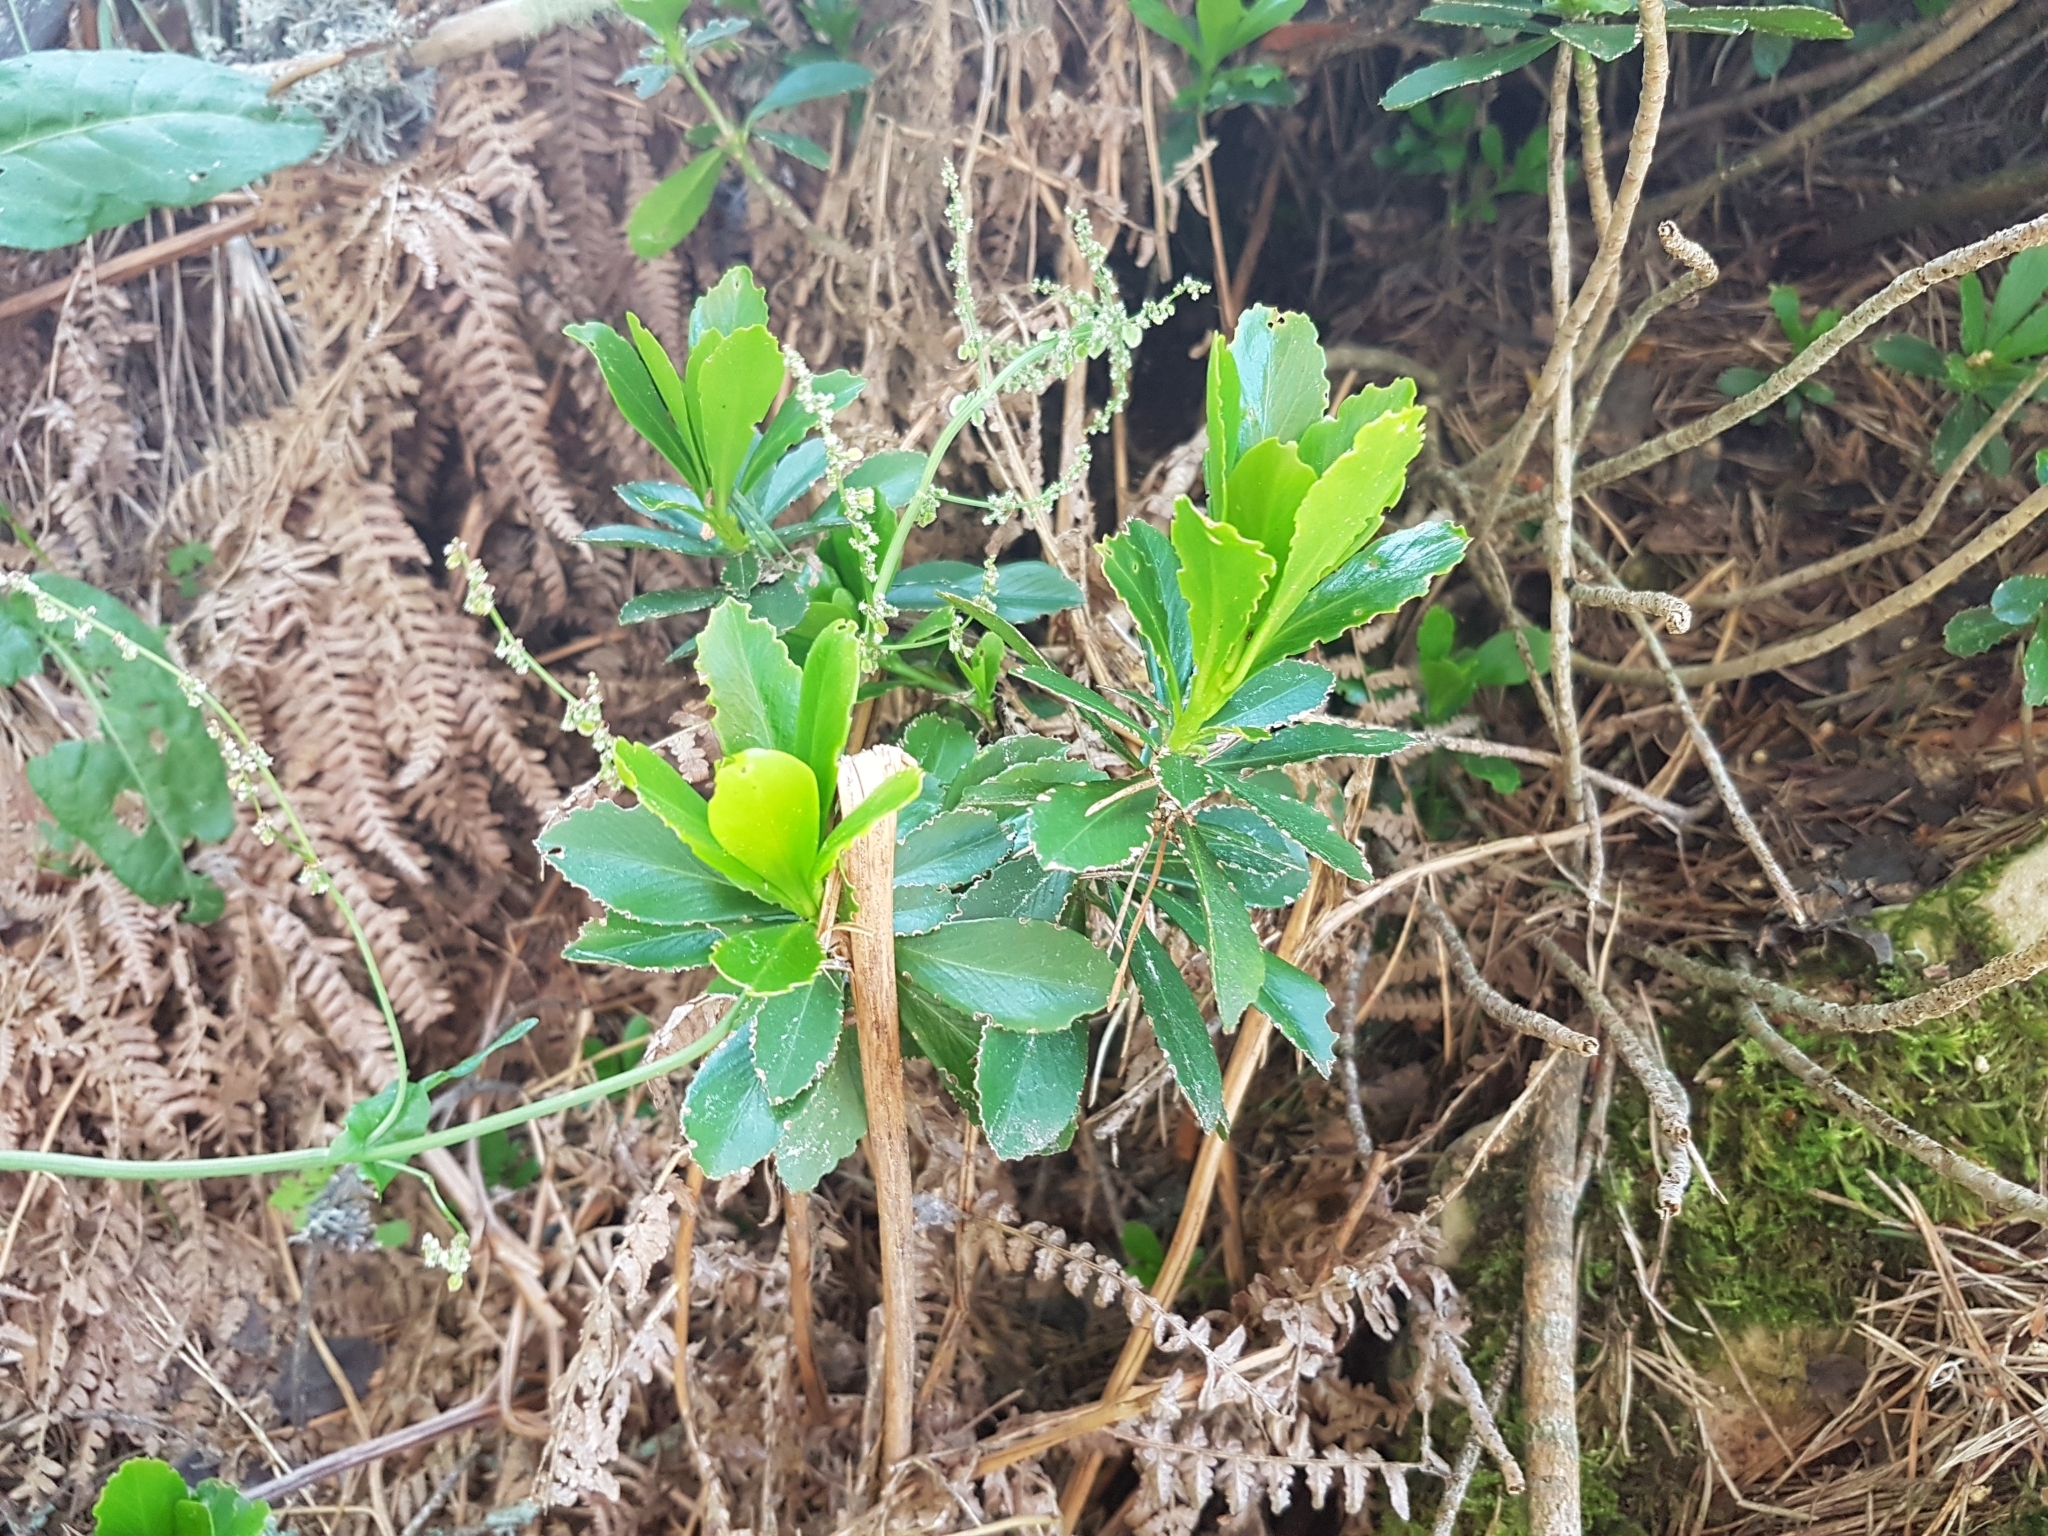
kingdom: Plantae
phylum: Tracheophyta
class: Magnoliopsida
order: Malvales
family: Thymelaeaceae
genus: Daphne
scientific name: Daphne laureola
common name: Spurge-laurel
